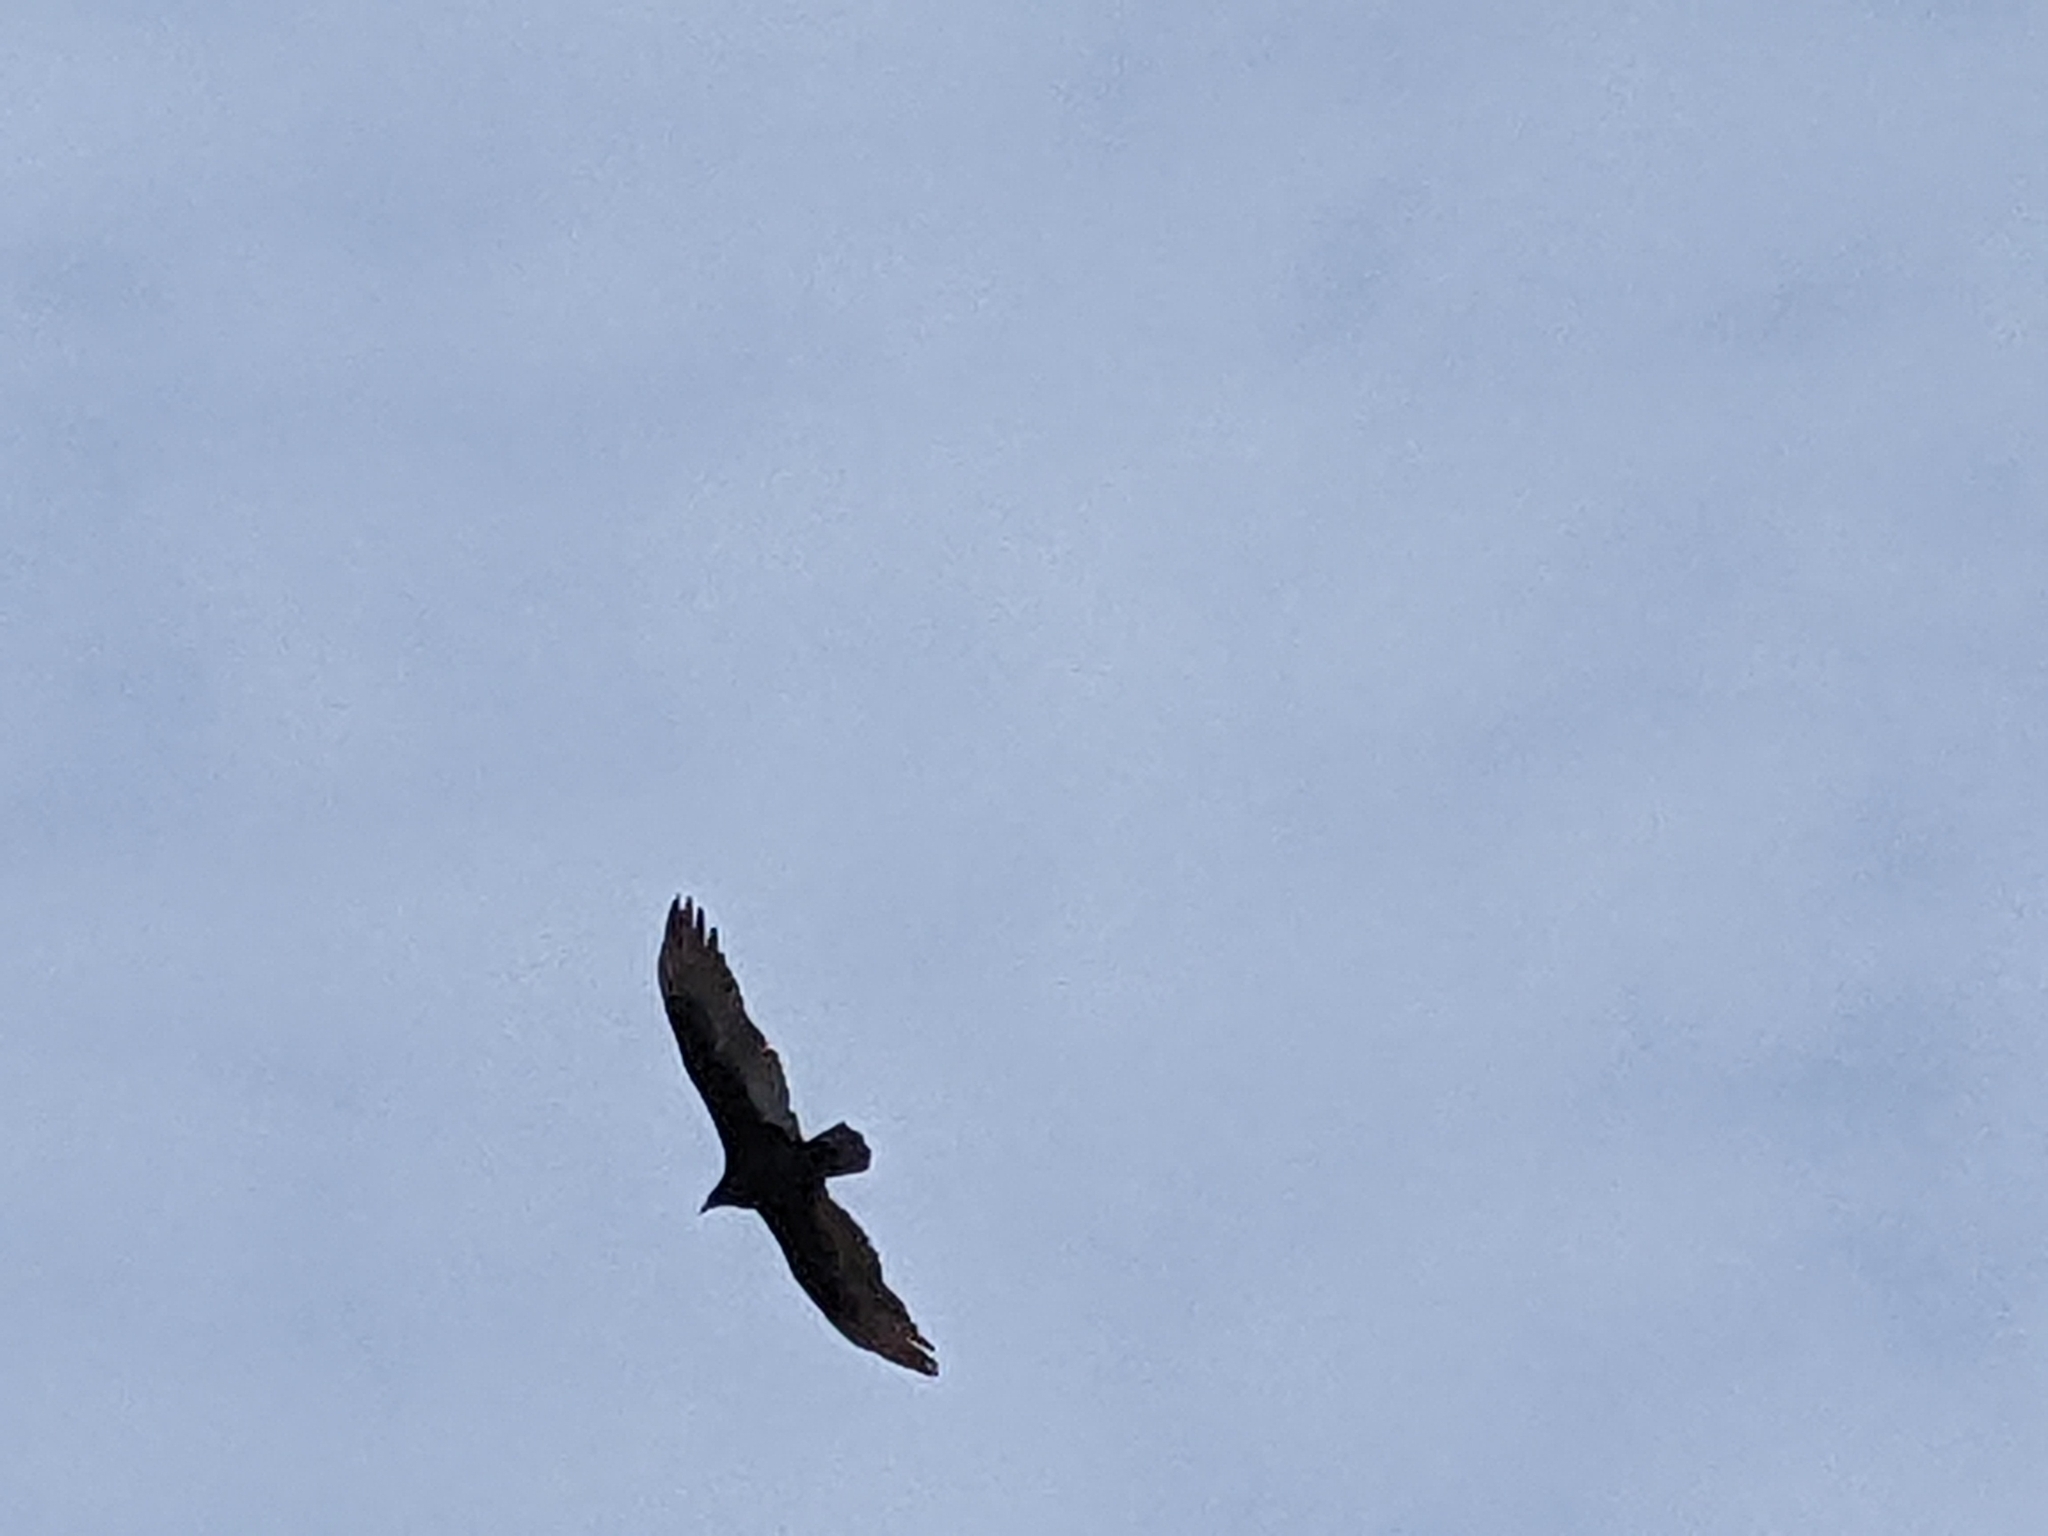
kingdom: Animalia
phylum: Chordata
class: Aves
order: Accipitriformes
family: Cathartidae
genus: Cathartes
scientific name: Cathartes aura
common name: Turkey vulture
